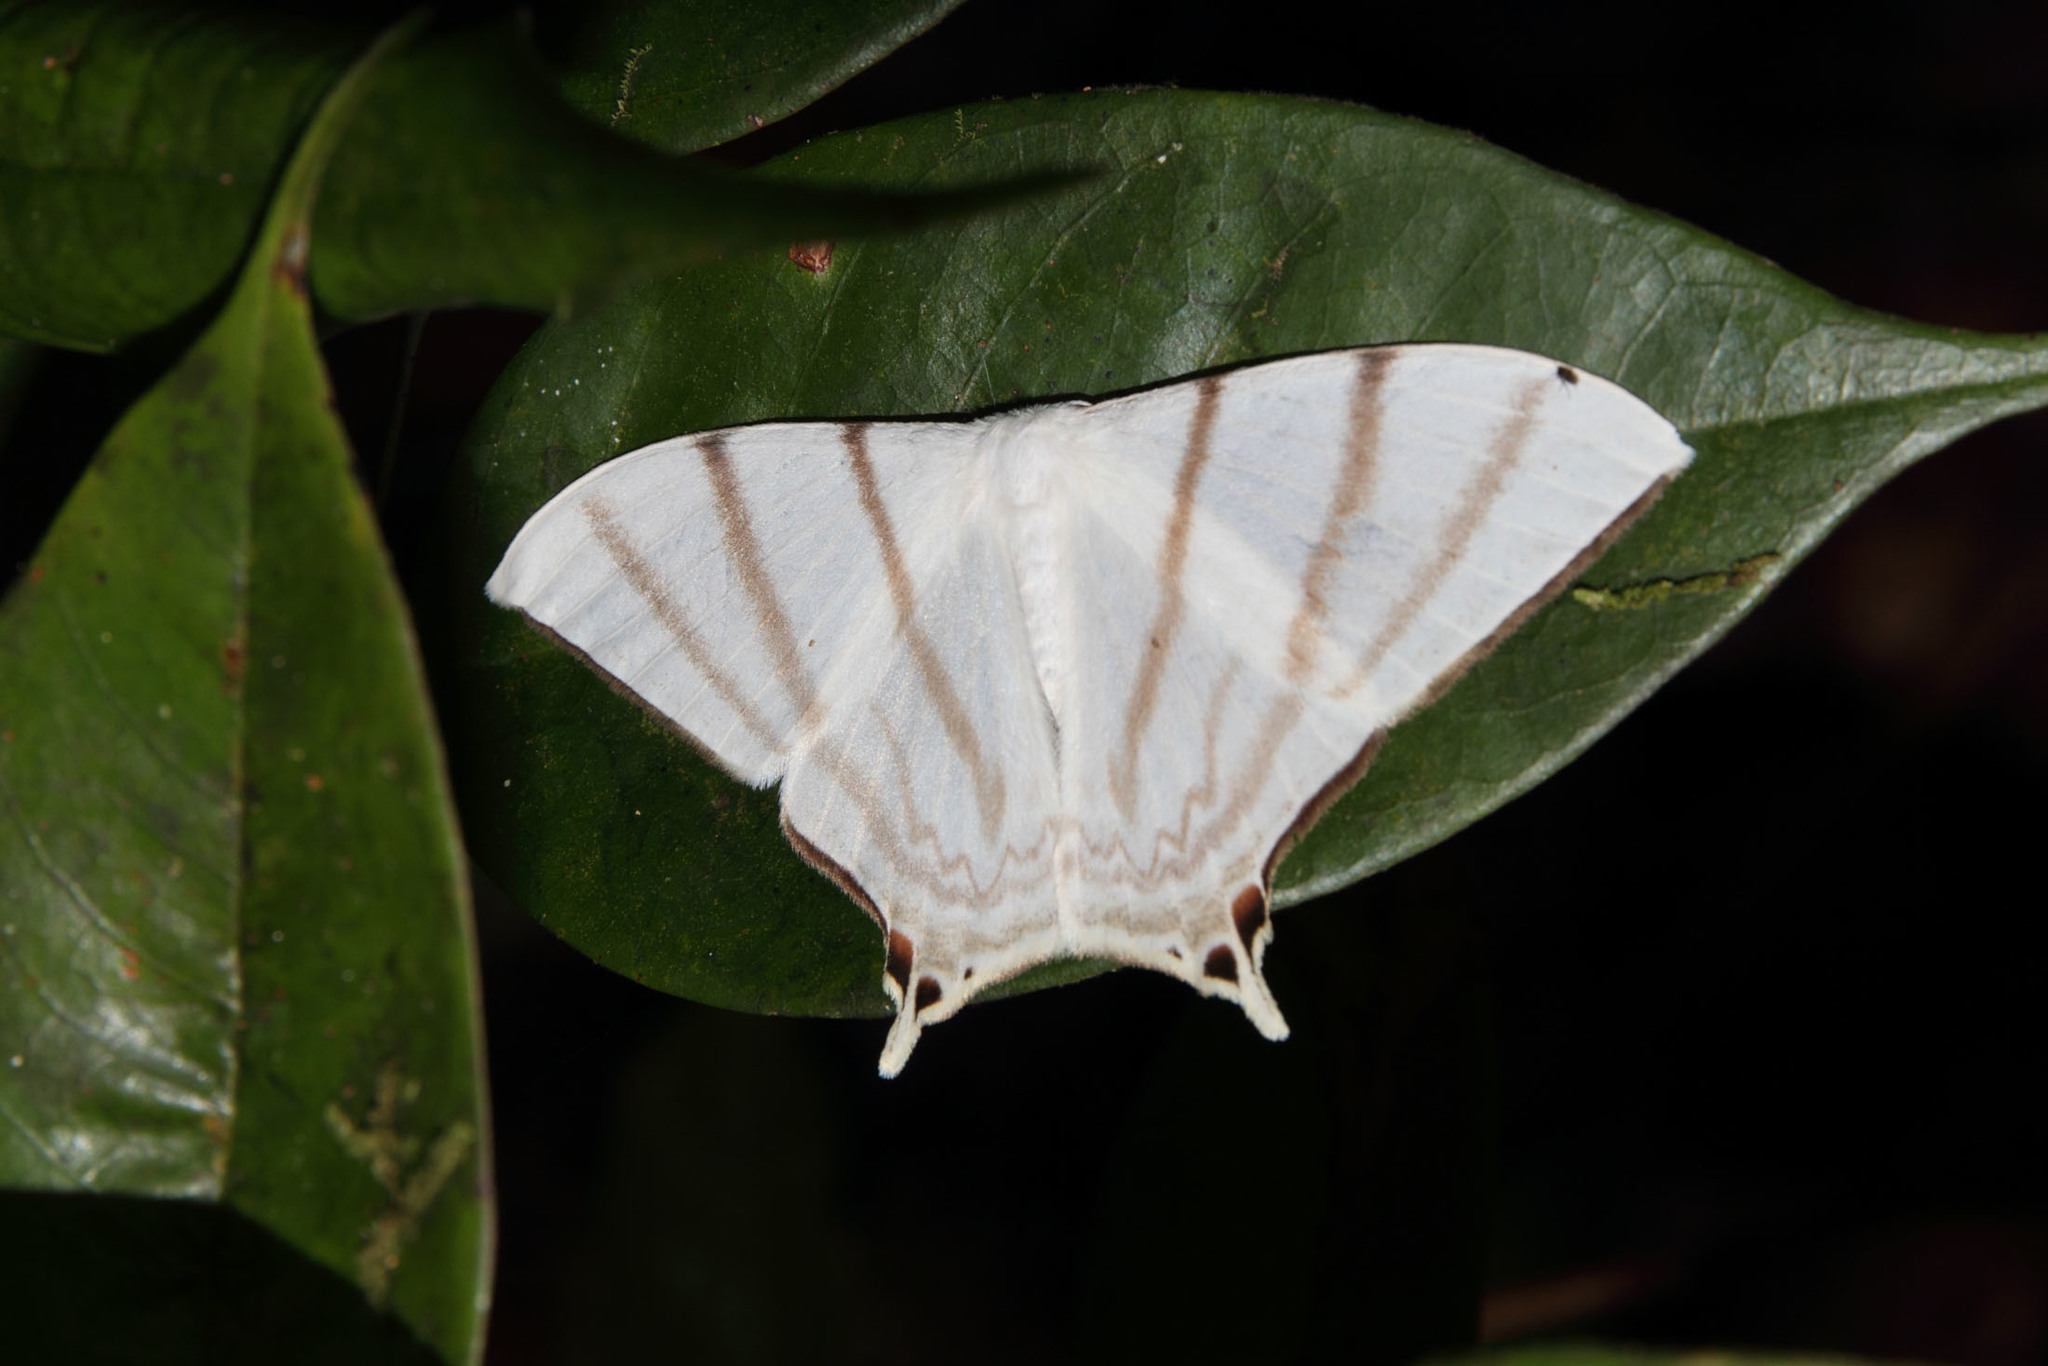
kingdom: Animalia
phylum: Arthropoda
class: Insecta
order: Lepidoptera
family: Saturniidae
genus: Therinia
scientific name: Therinia spinicauda
